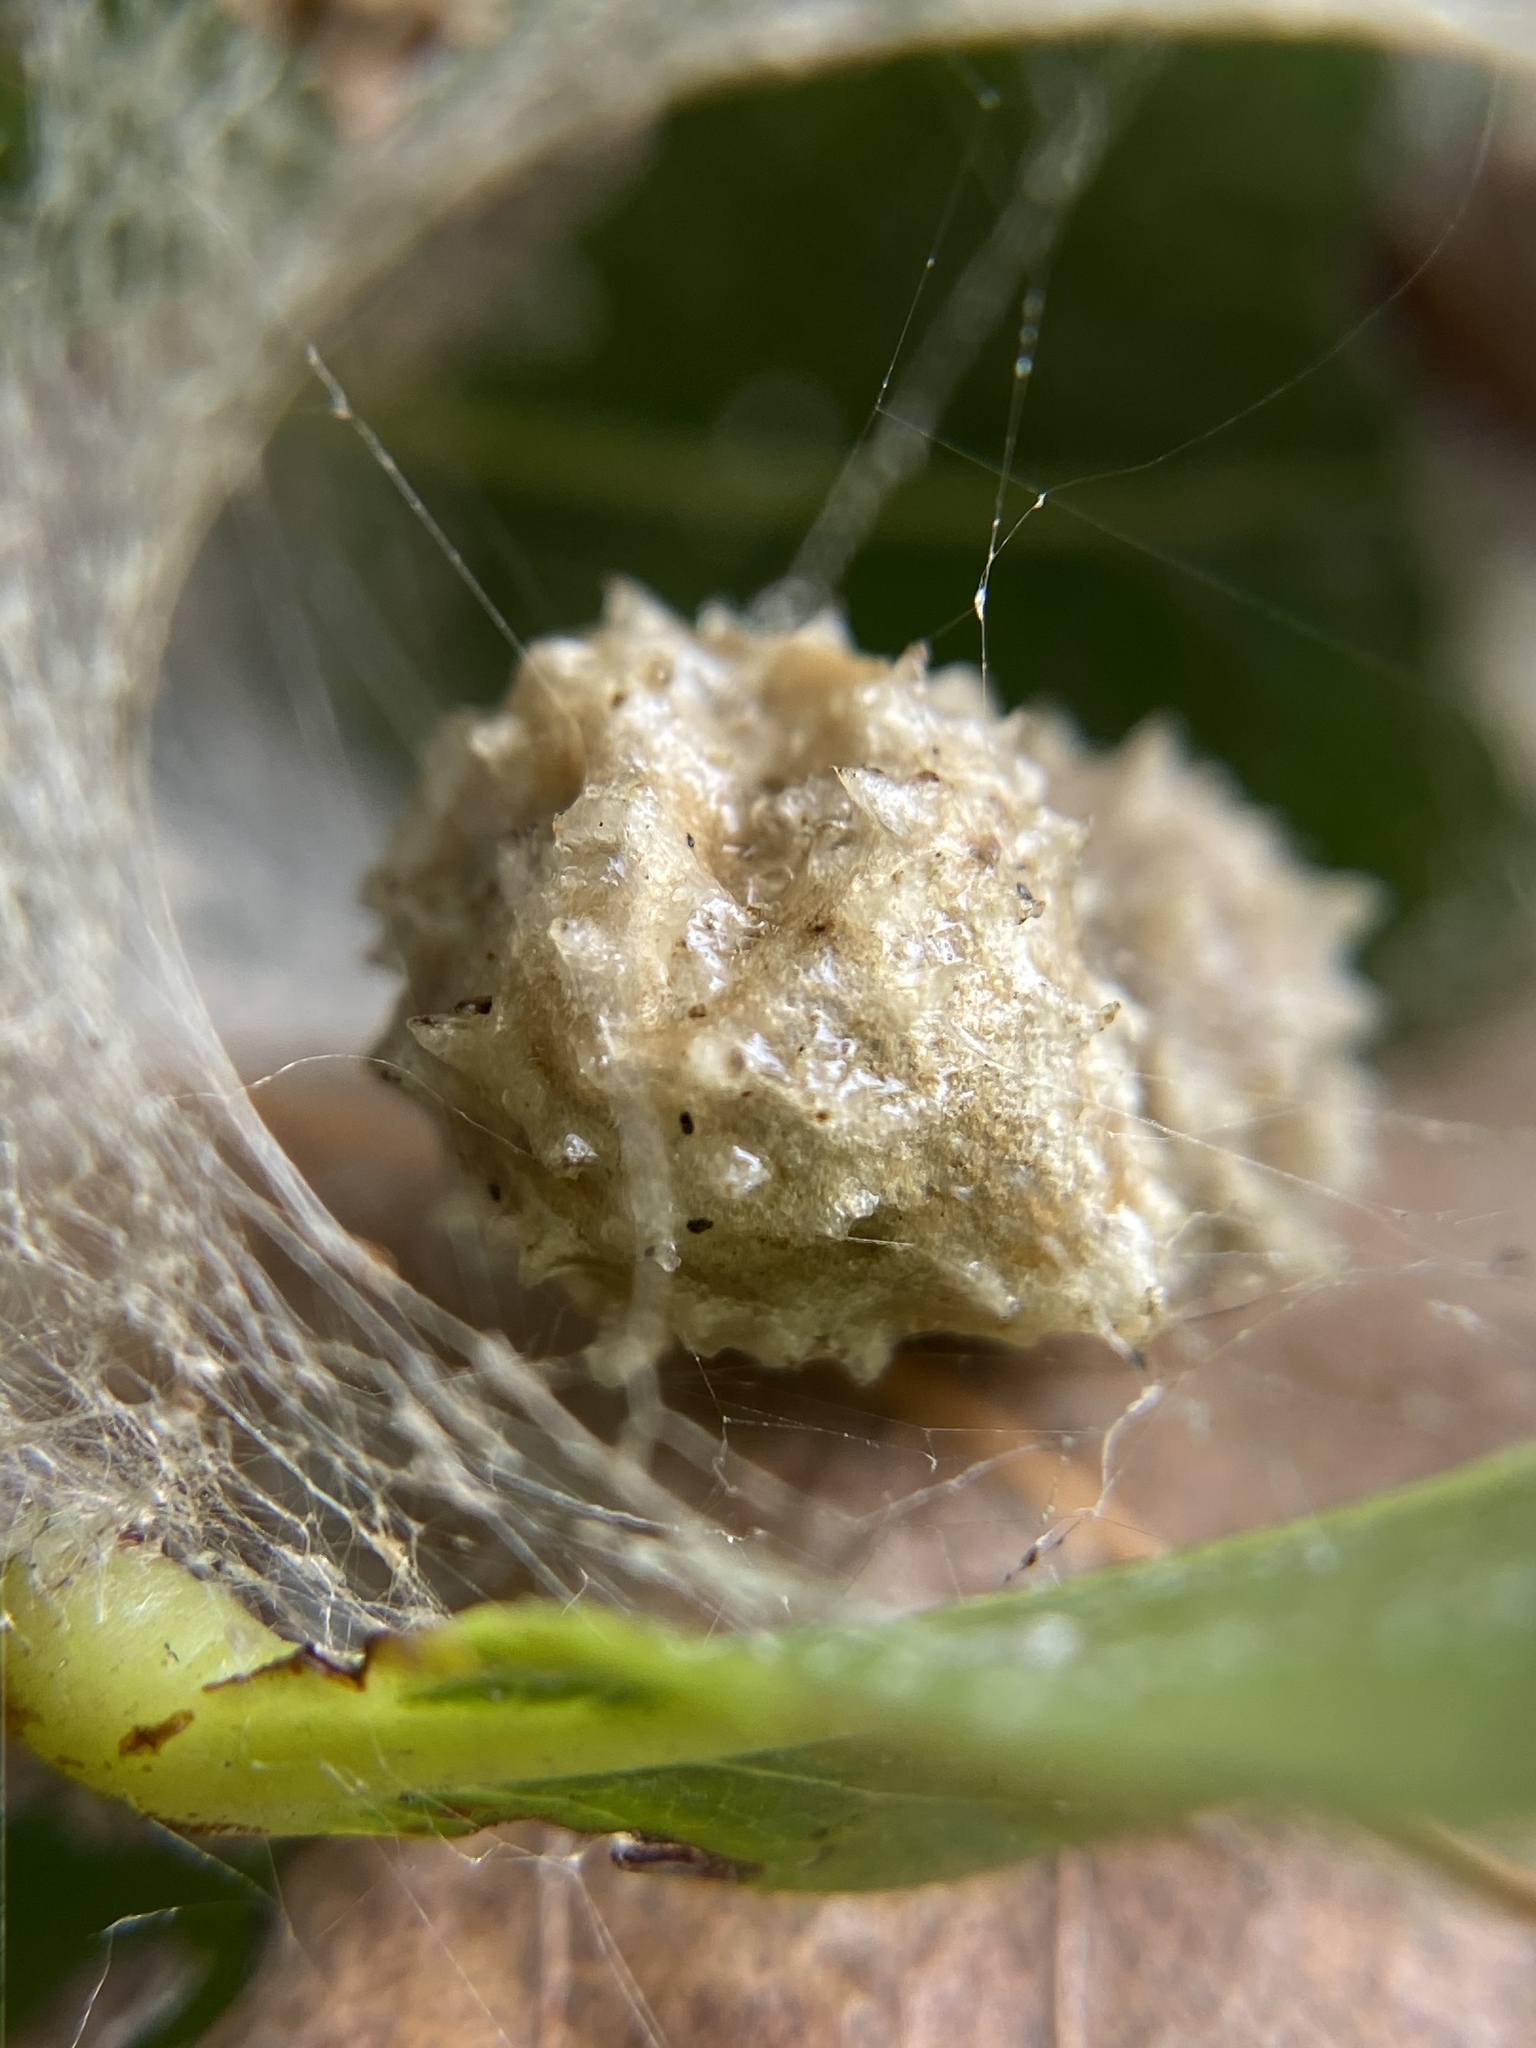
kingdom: Animalia
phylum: Arthropoda
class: Arachnida
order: Araneae
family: Theridiidae
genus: Latrodectus
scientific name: Latrodectus geometricus
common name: Brown widow spider
